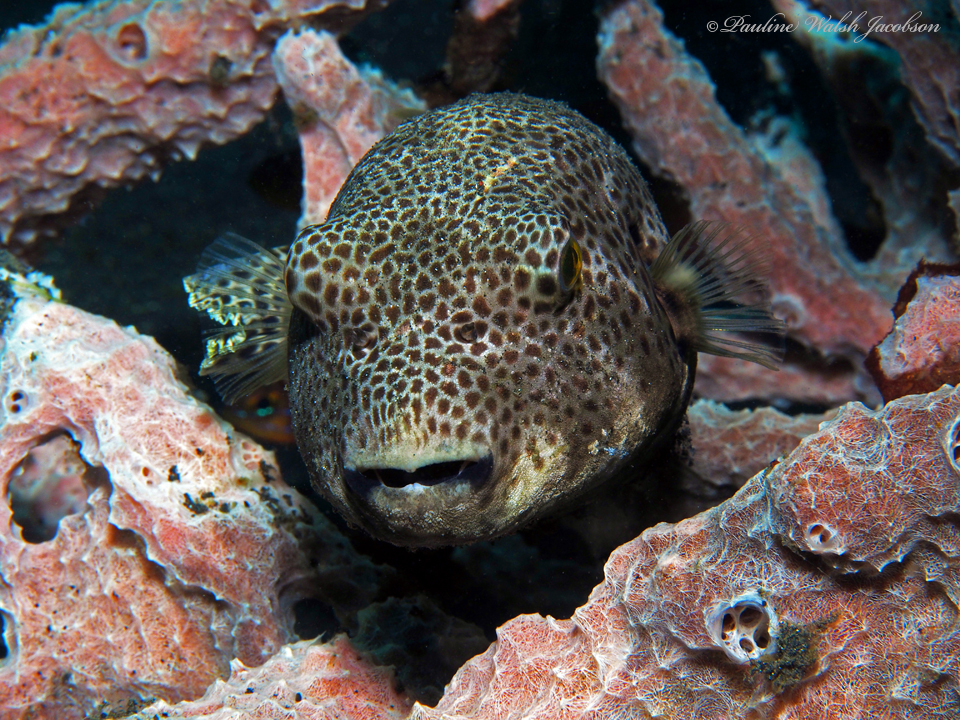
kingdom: Animalia
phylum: Chordata
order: Tetraodontiformes
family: Tetraodontidae
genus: Arothron
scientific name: Arothron stellatus
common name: Star blaasop
